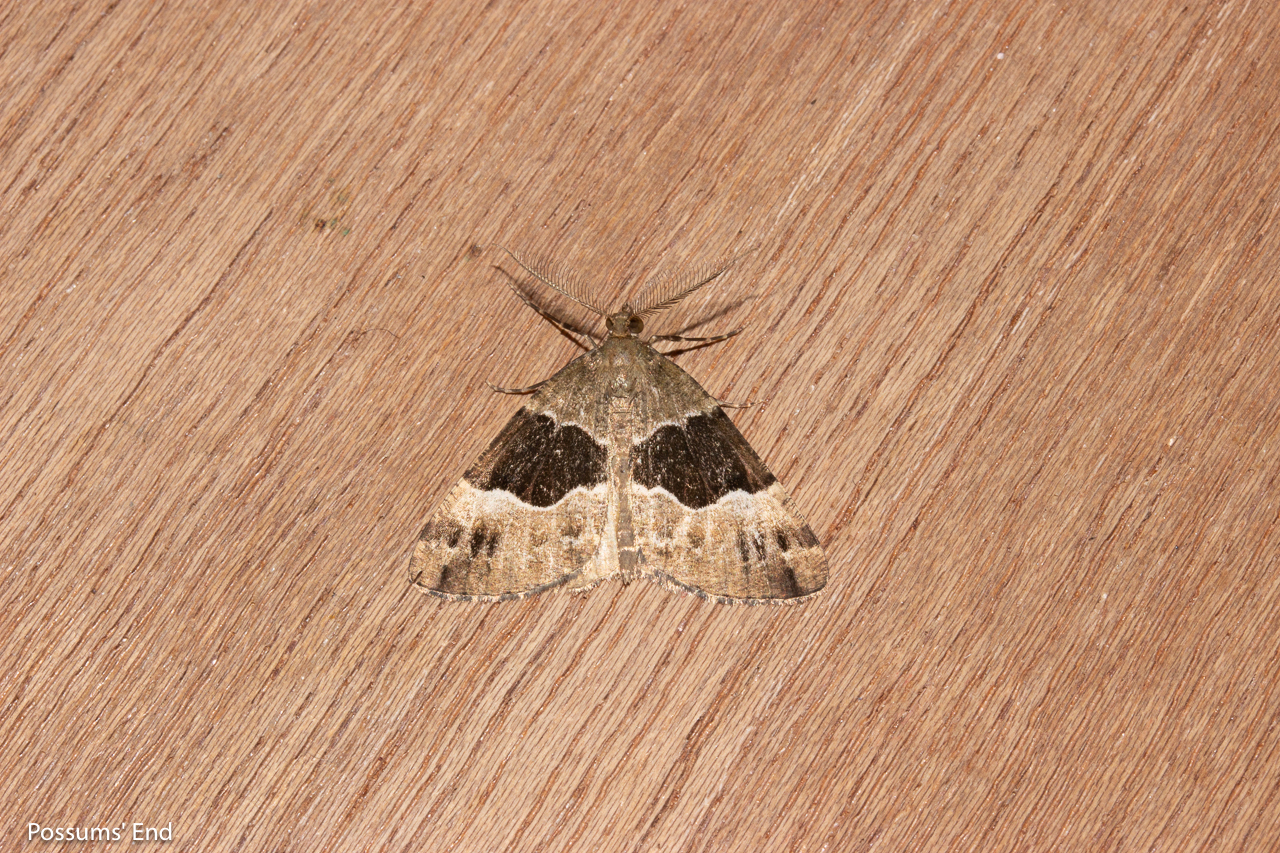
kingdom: Animalia
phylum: Arthropoda
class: Insecta
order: Lepidoptera
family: Geometridae
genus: Pseudocoremia
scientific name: Pseudocoremia
